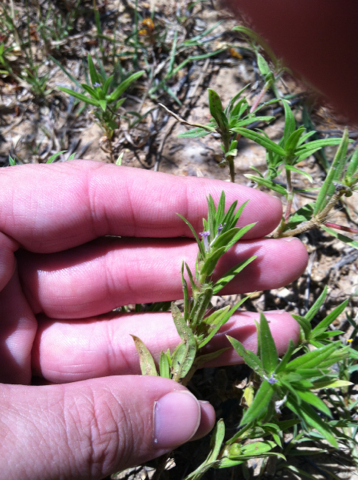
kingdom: Plantae
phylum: Tracheophyta
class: Magnoliopsida
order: Gentianales
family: Rubiaceae
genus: Hexasepalum
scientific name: Hexasepalum teres
